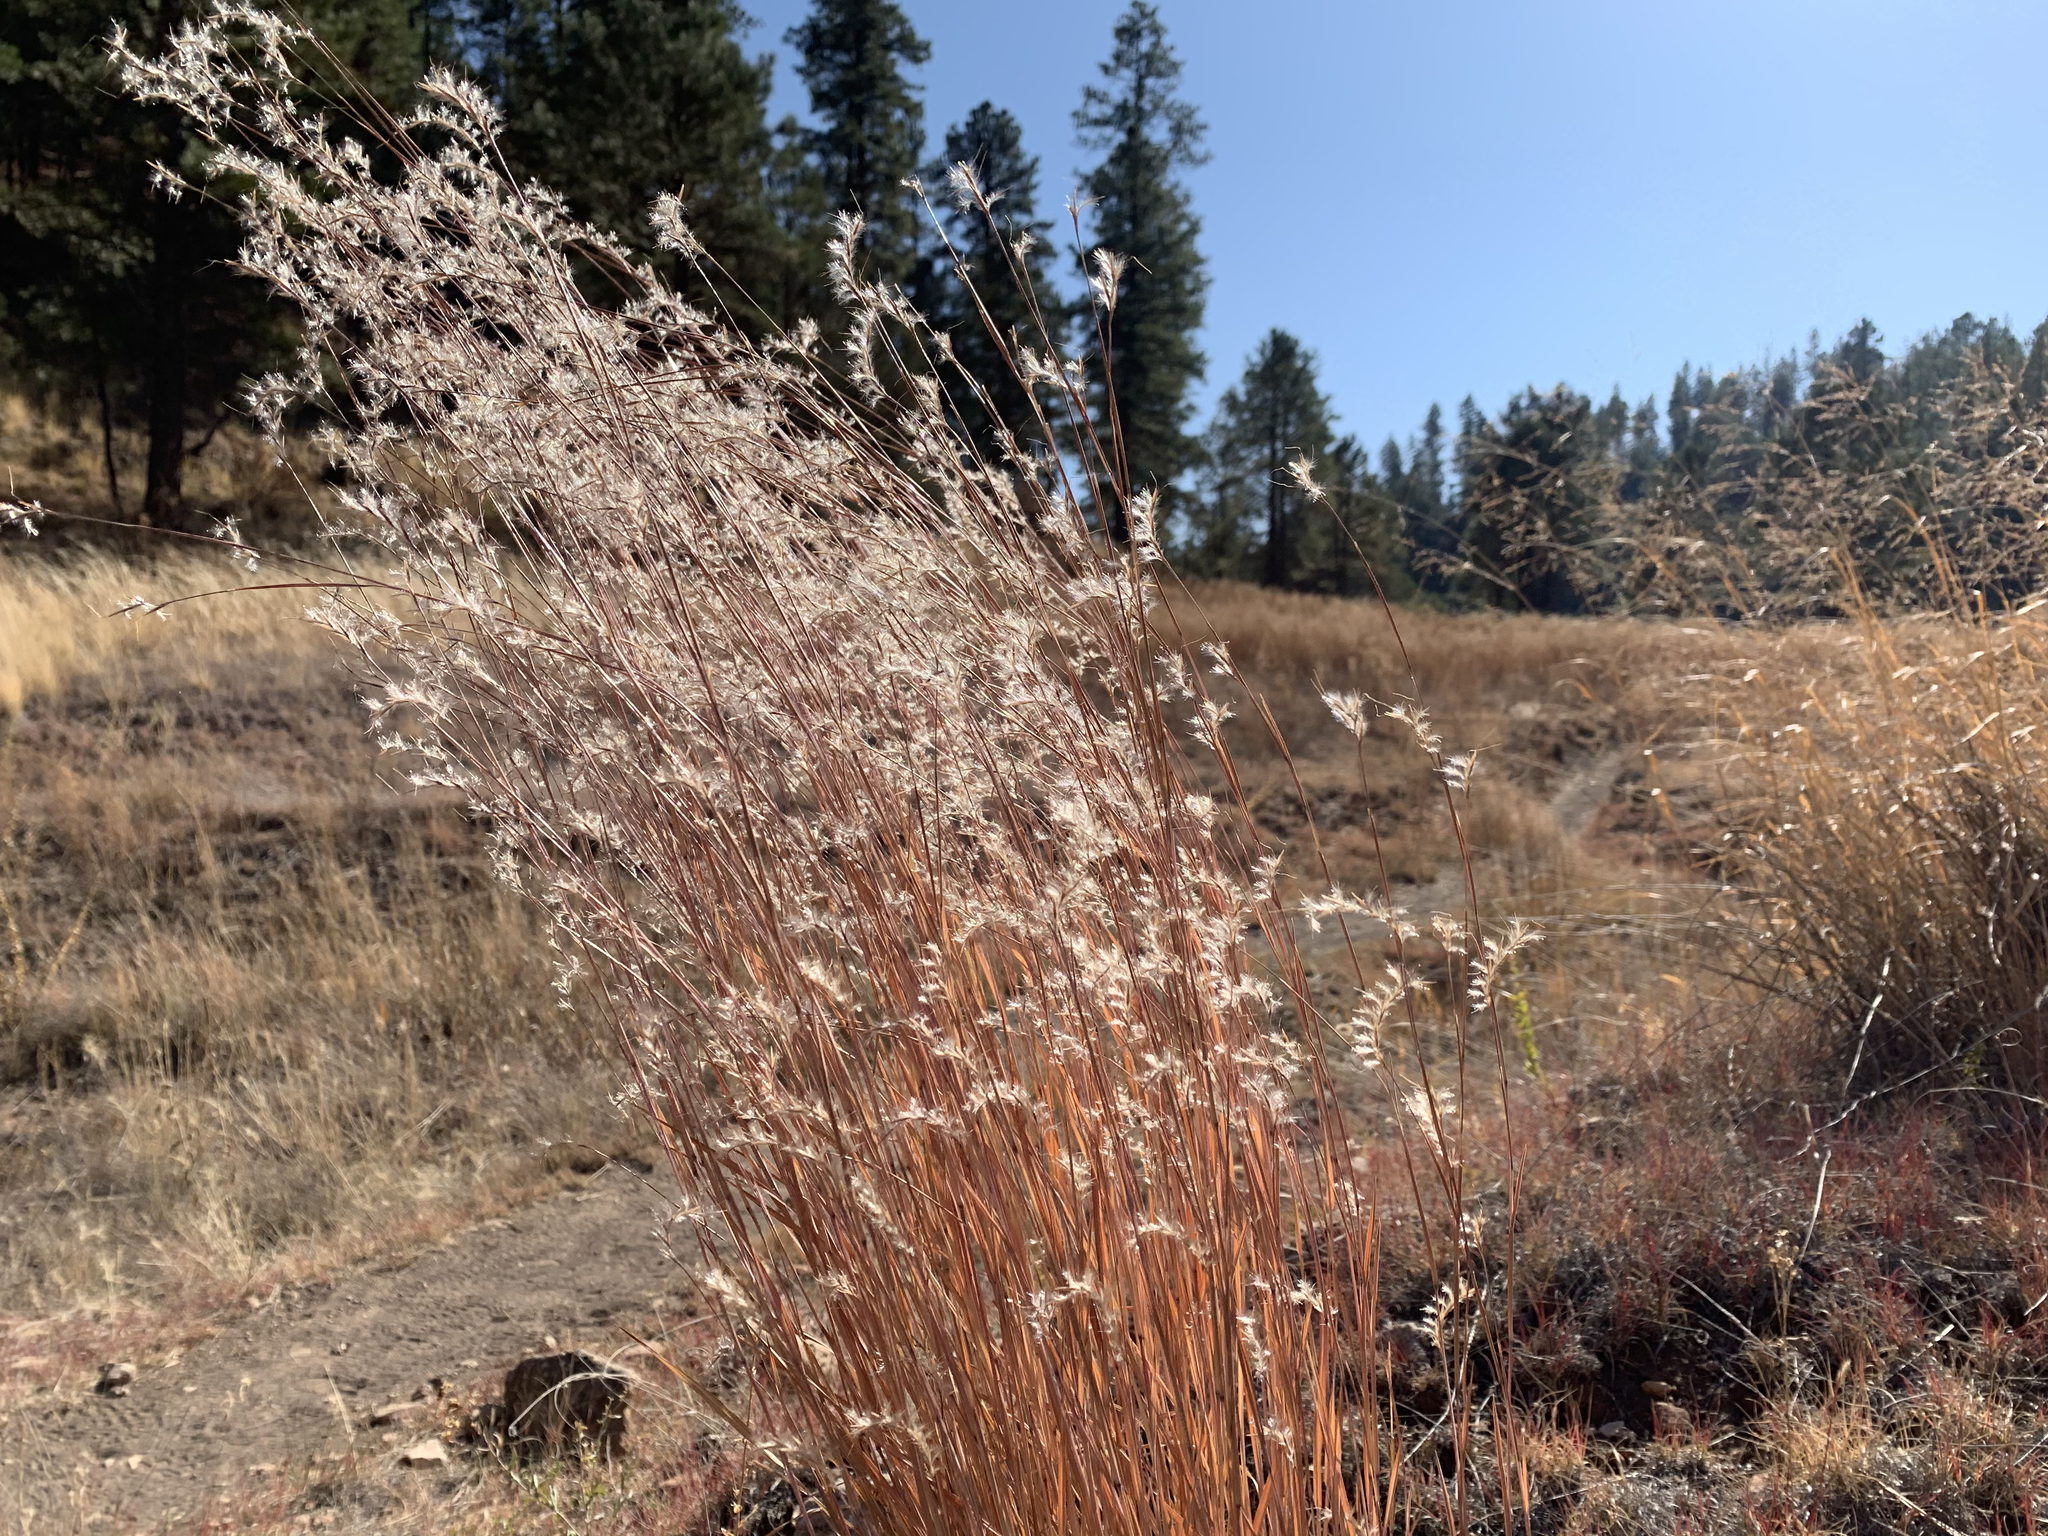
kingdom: Plantae
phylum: Tracheophyta
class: Liliopsida
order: Poales
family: Poaceae
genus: Schizachyrium
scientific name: Schizachyrium scoparium
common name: Little bluestem
